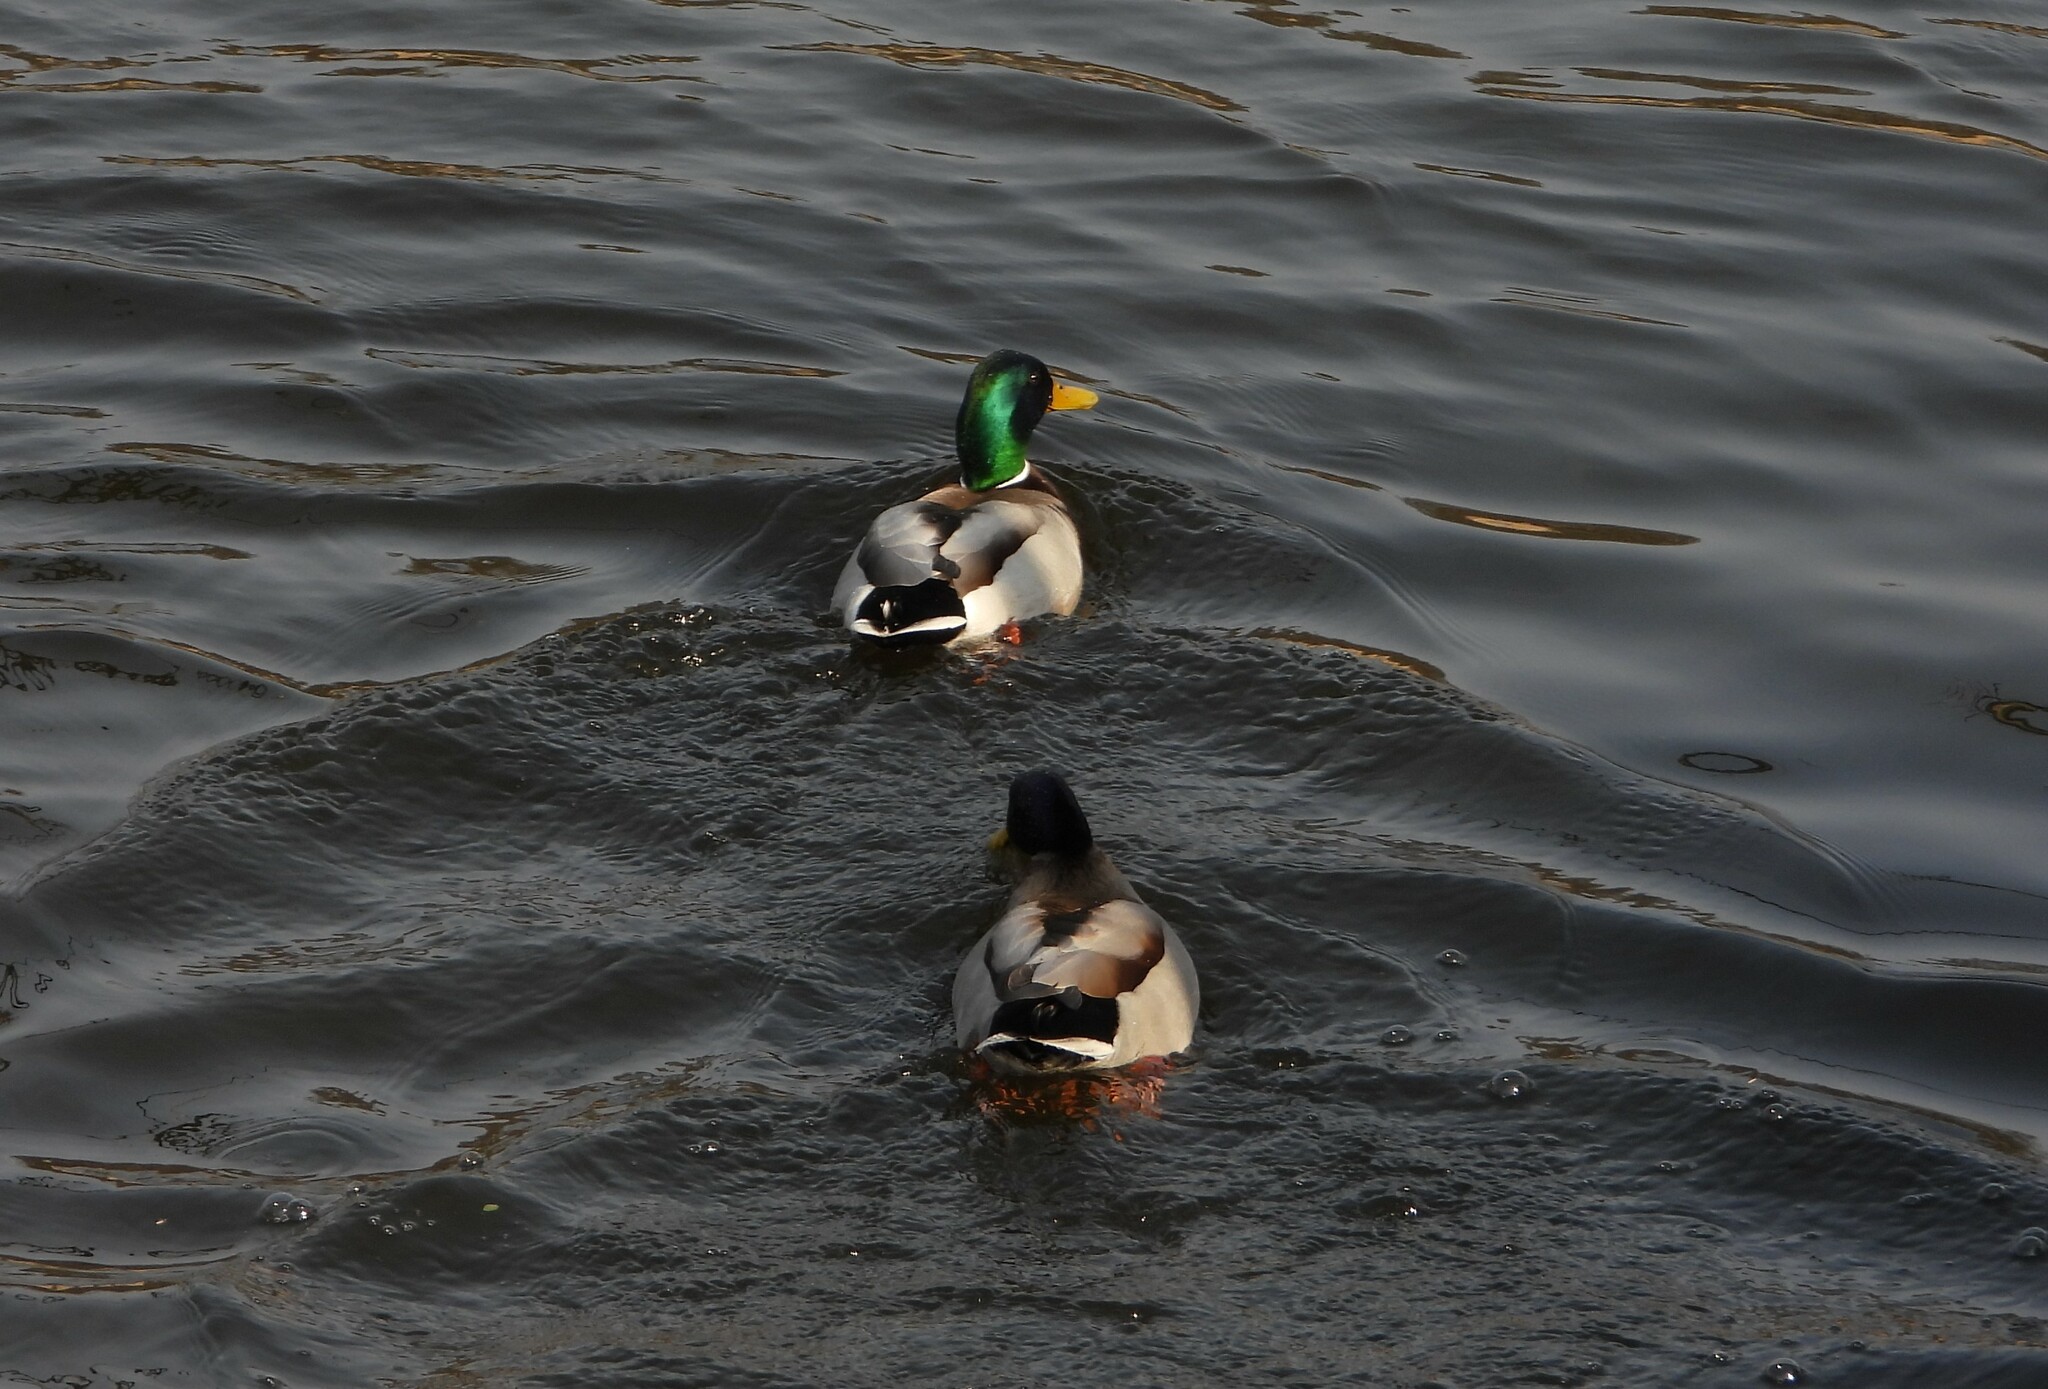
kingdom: Animalia
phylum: Chordata
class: Aves
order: Anseriformes
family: Anatidae
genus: Anas
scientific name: Anas platyrhynchos
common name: Mallard
